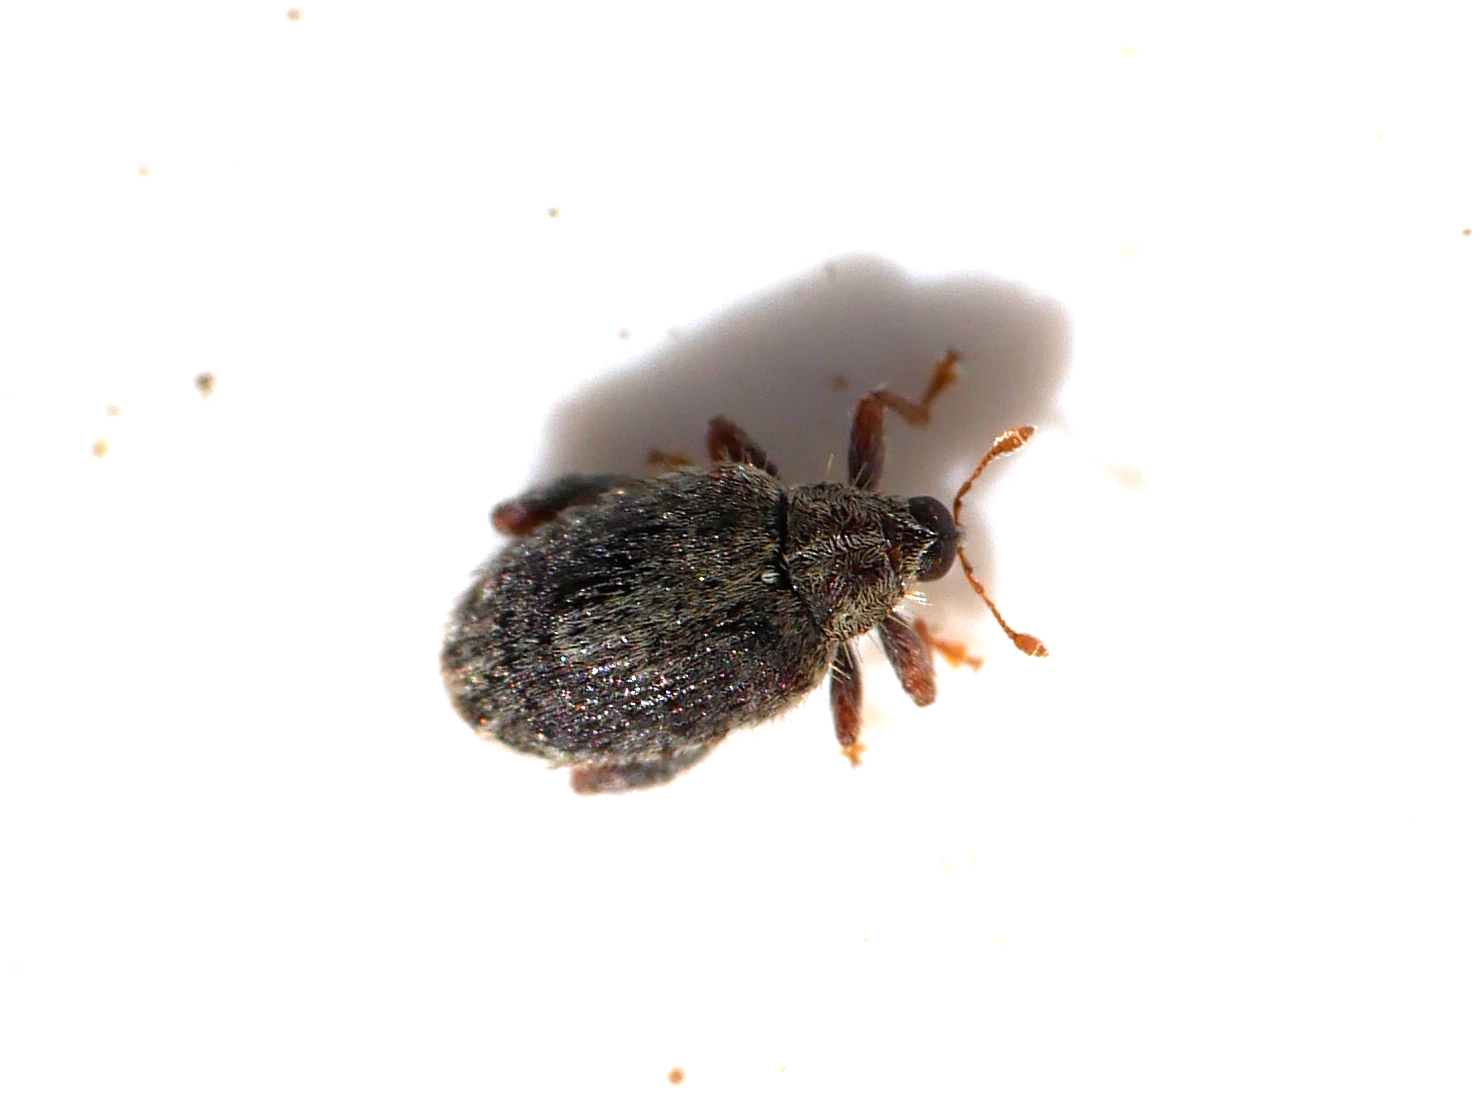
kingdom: Animalia
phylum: Arthropoda
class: Insecta
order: Coleoptera
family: Curculionidae
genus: Orchestes
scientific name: Orchestes quercus
